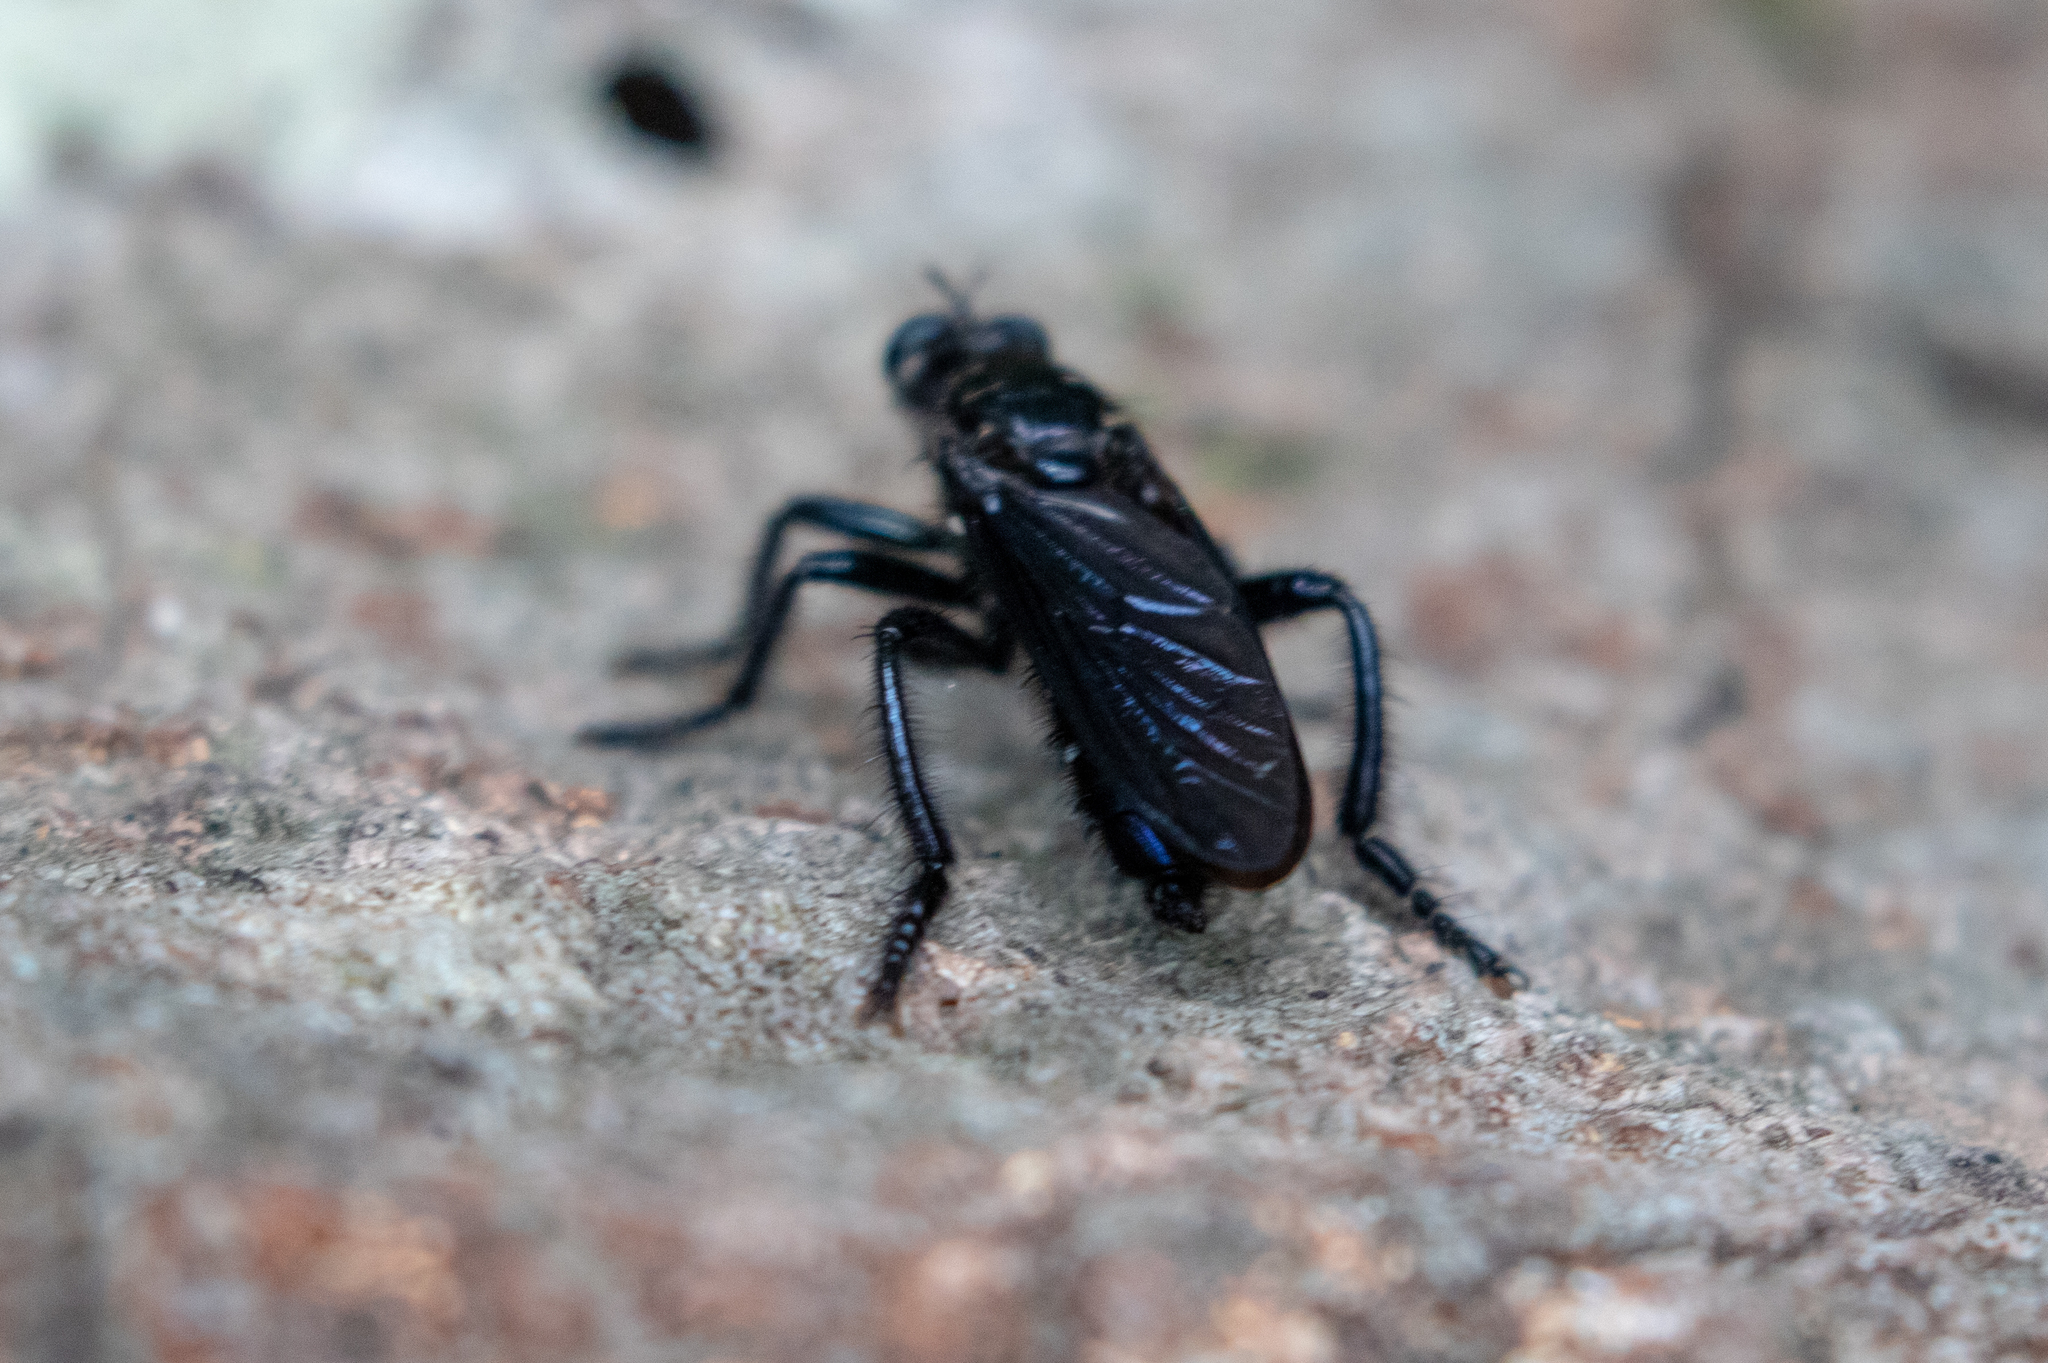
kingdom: Animalia
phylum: Arthropoda
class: Insecta
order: Diptera
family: Asilidae
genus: Orthogonis
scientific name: Orthogonis stygia
